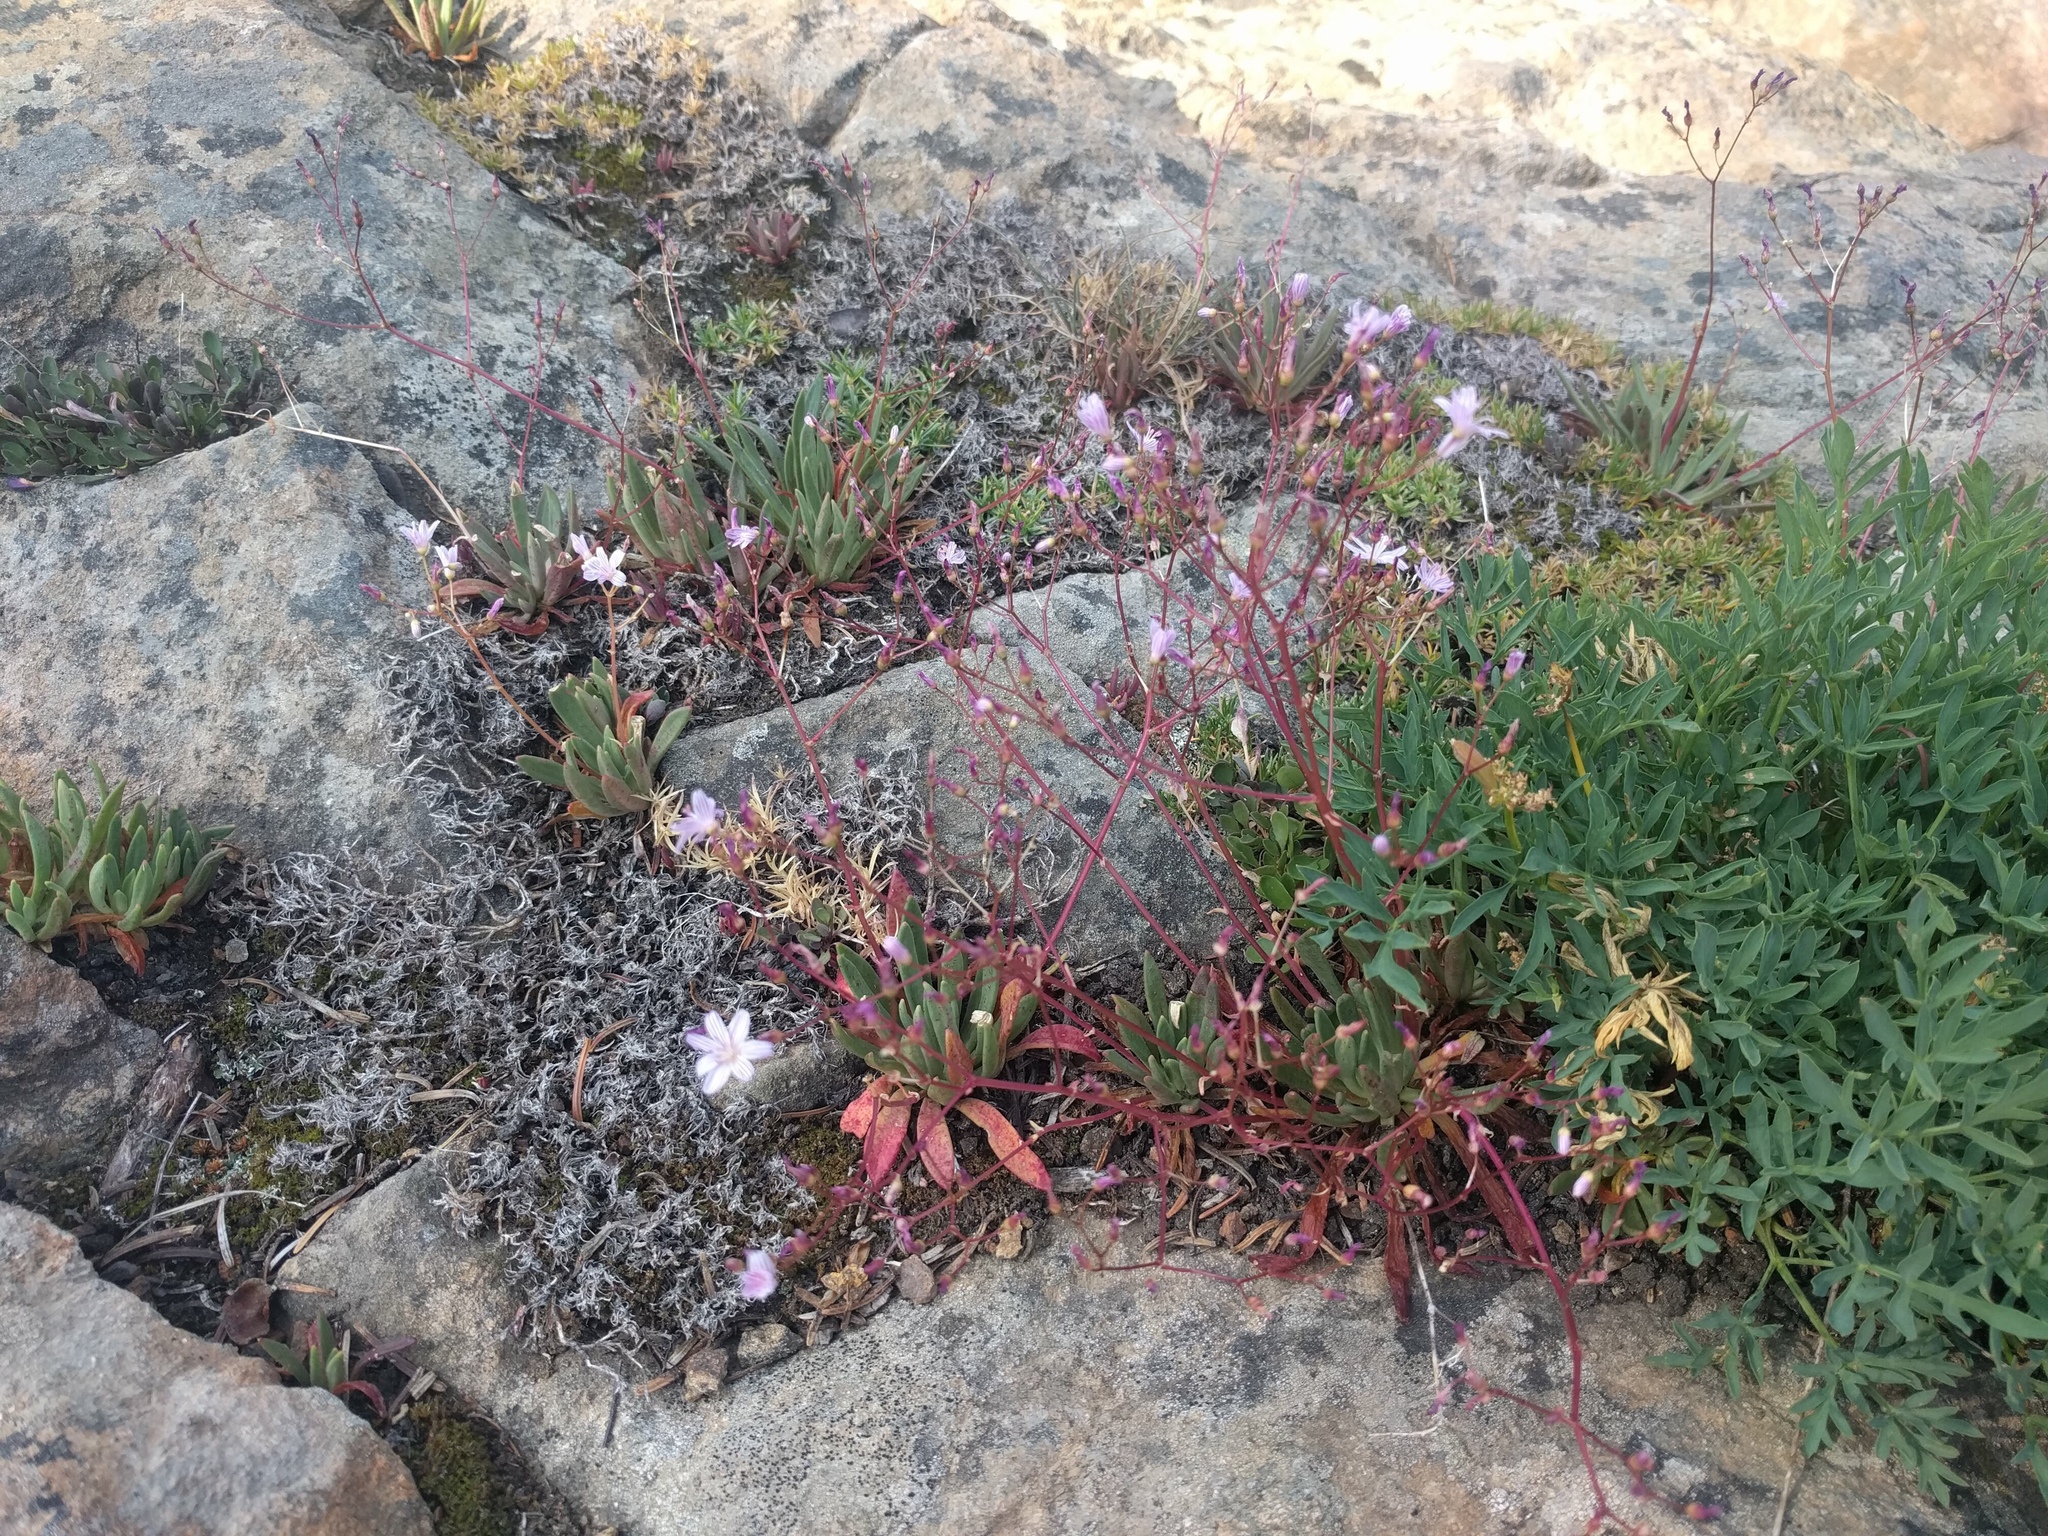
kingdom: Plantae
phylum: Tracheophyta
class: Magnoliopsida
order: Caryophyllales
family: Montiaceae
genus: Lewisia
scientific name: Lewisia columbiana
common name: Columbia lewisia
